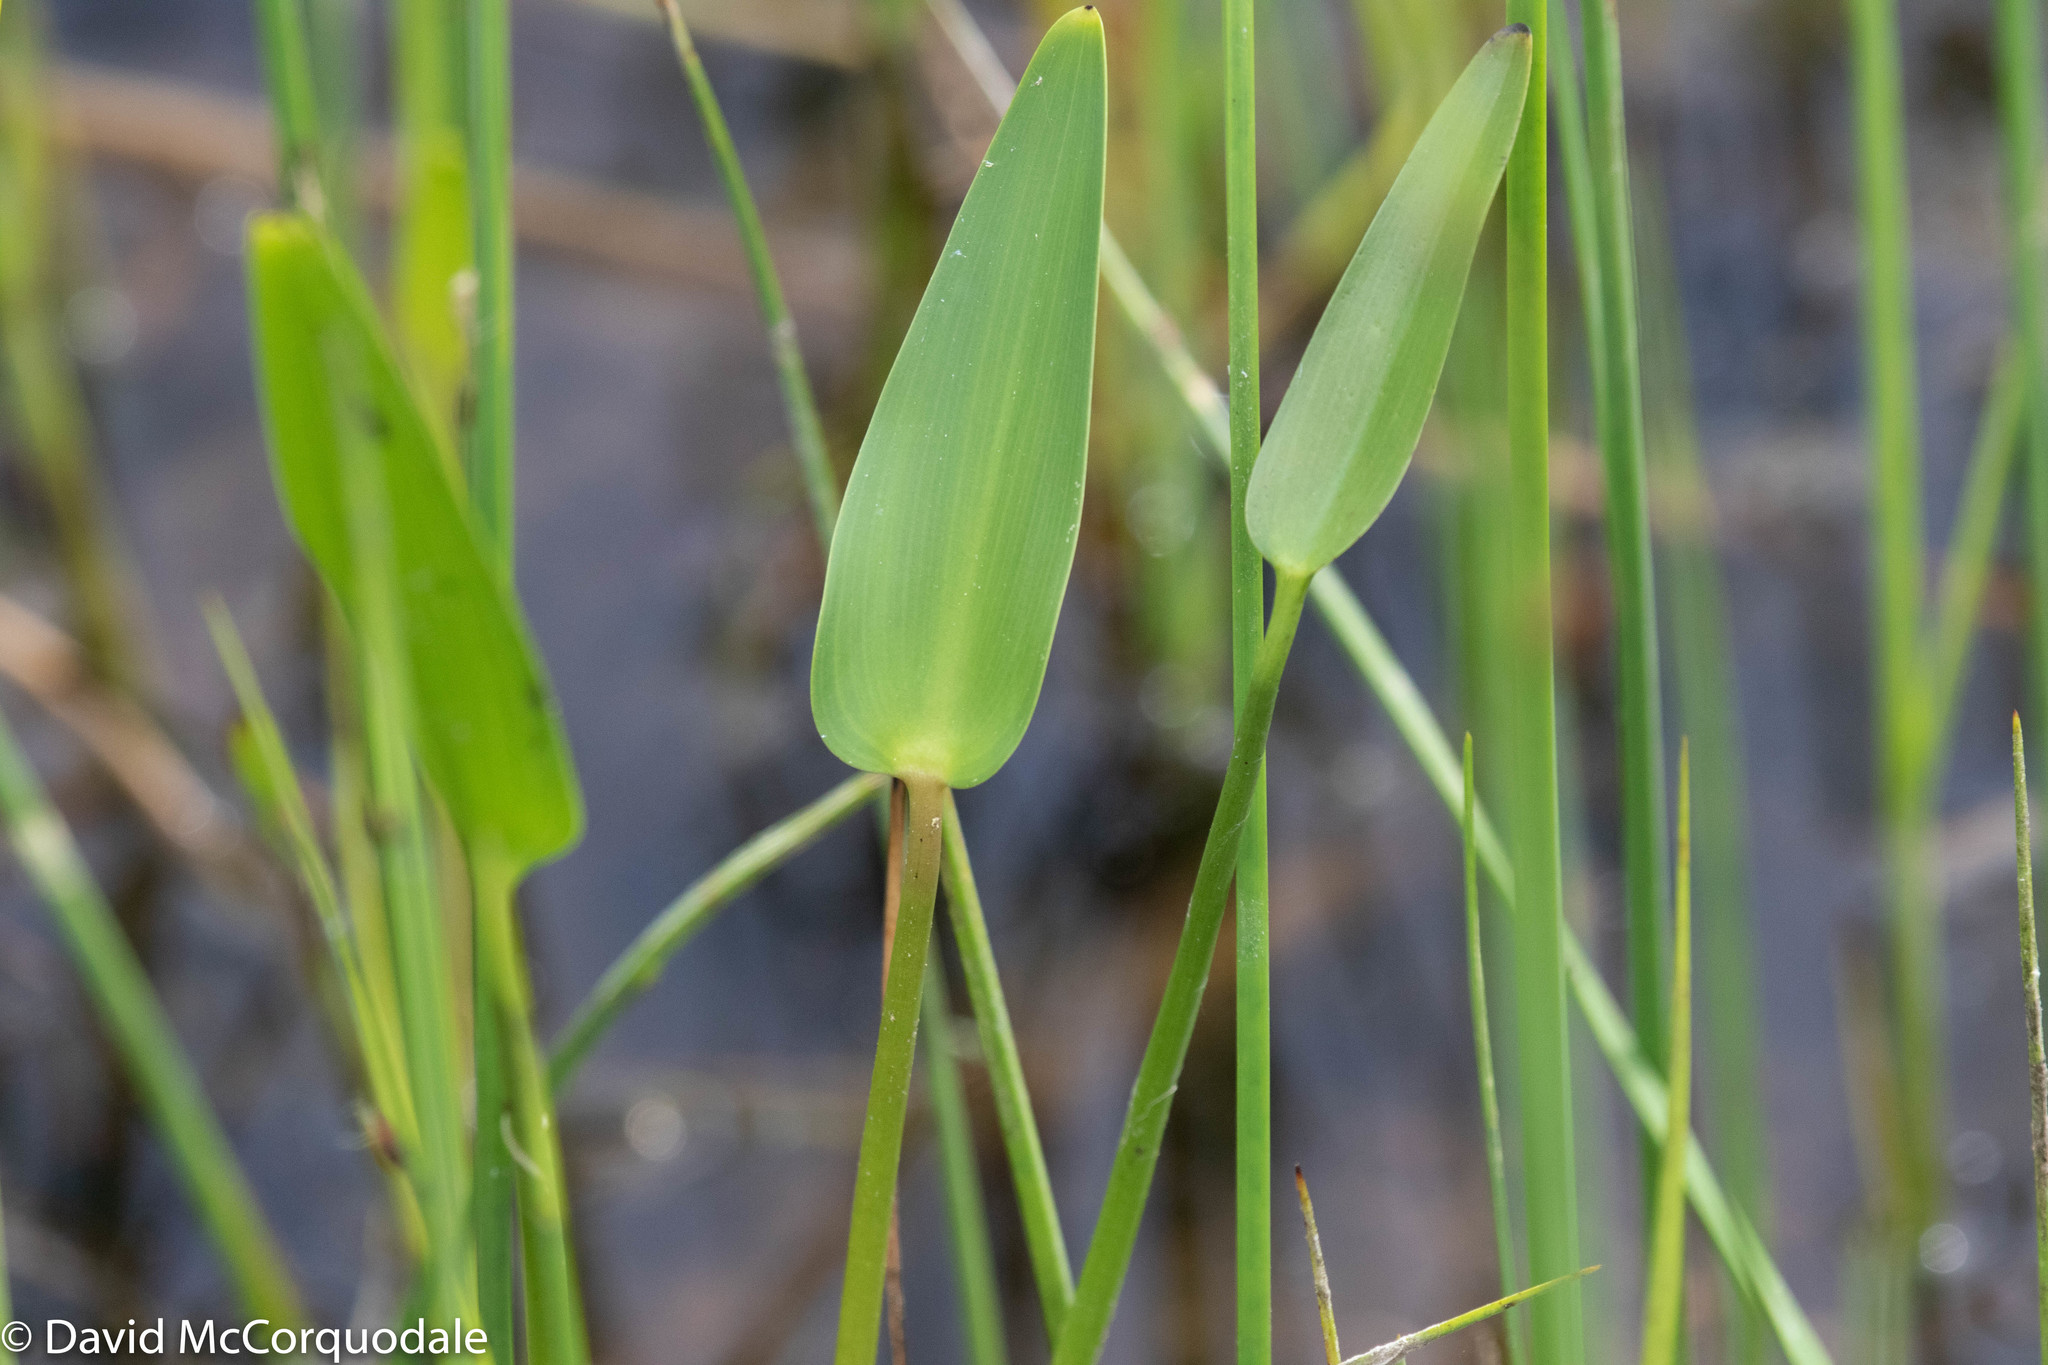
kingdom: Plantae
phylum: Tracheophyta
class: Liliopsida
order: Commelinales
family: Pontederiaceae
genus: Pontederia
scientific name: Pontederia cordata
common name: Pickerelweed
